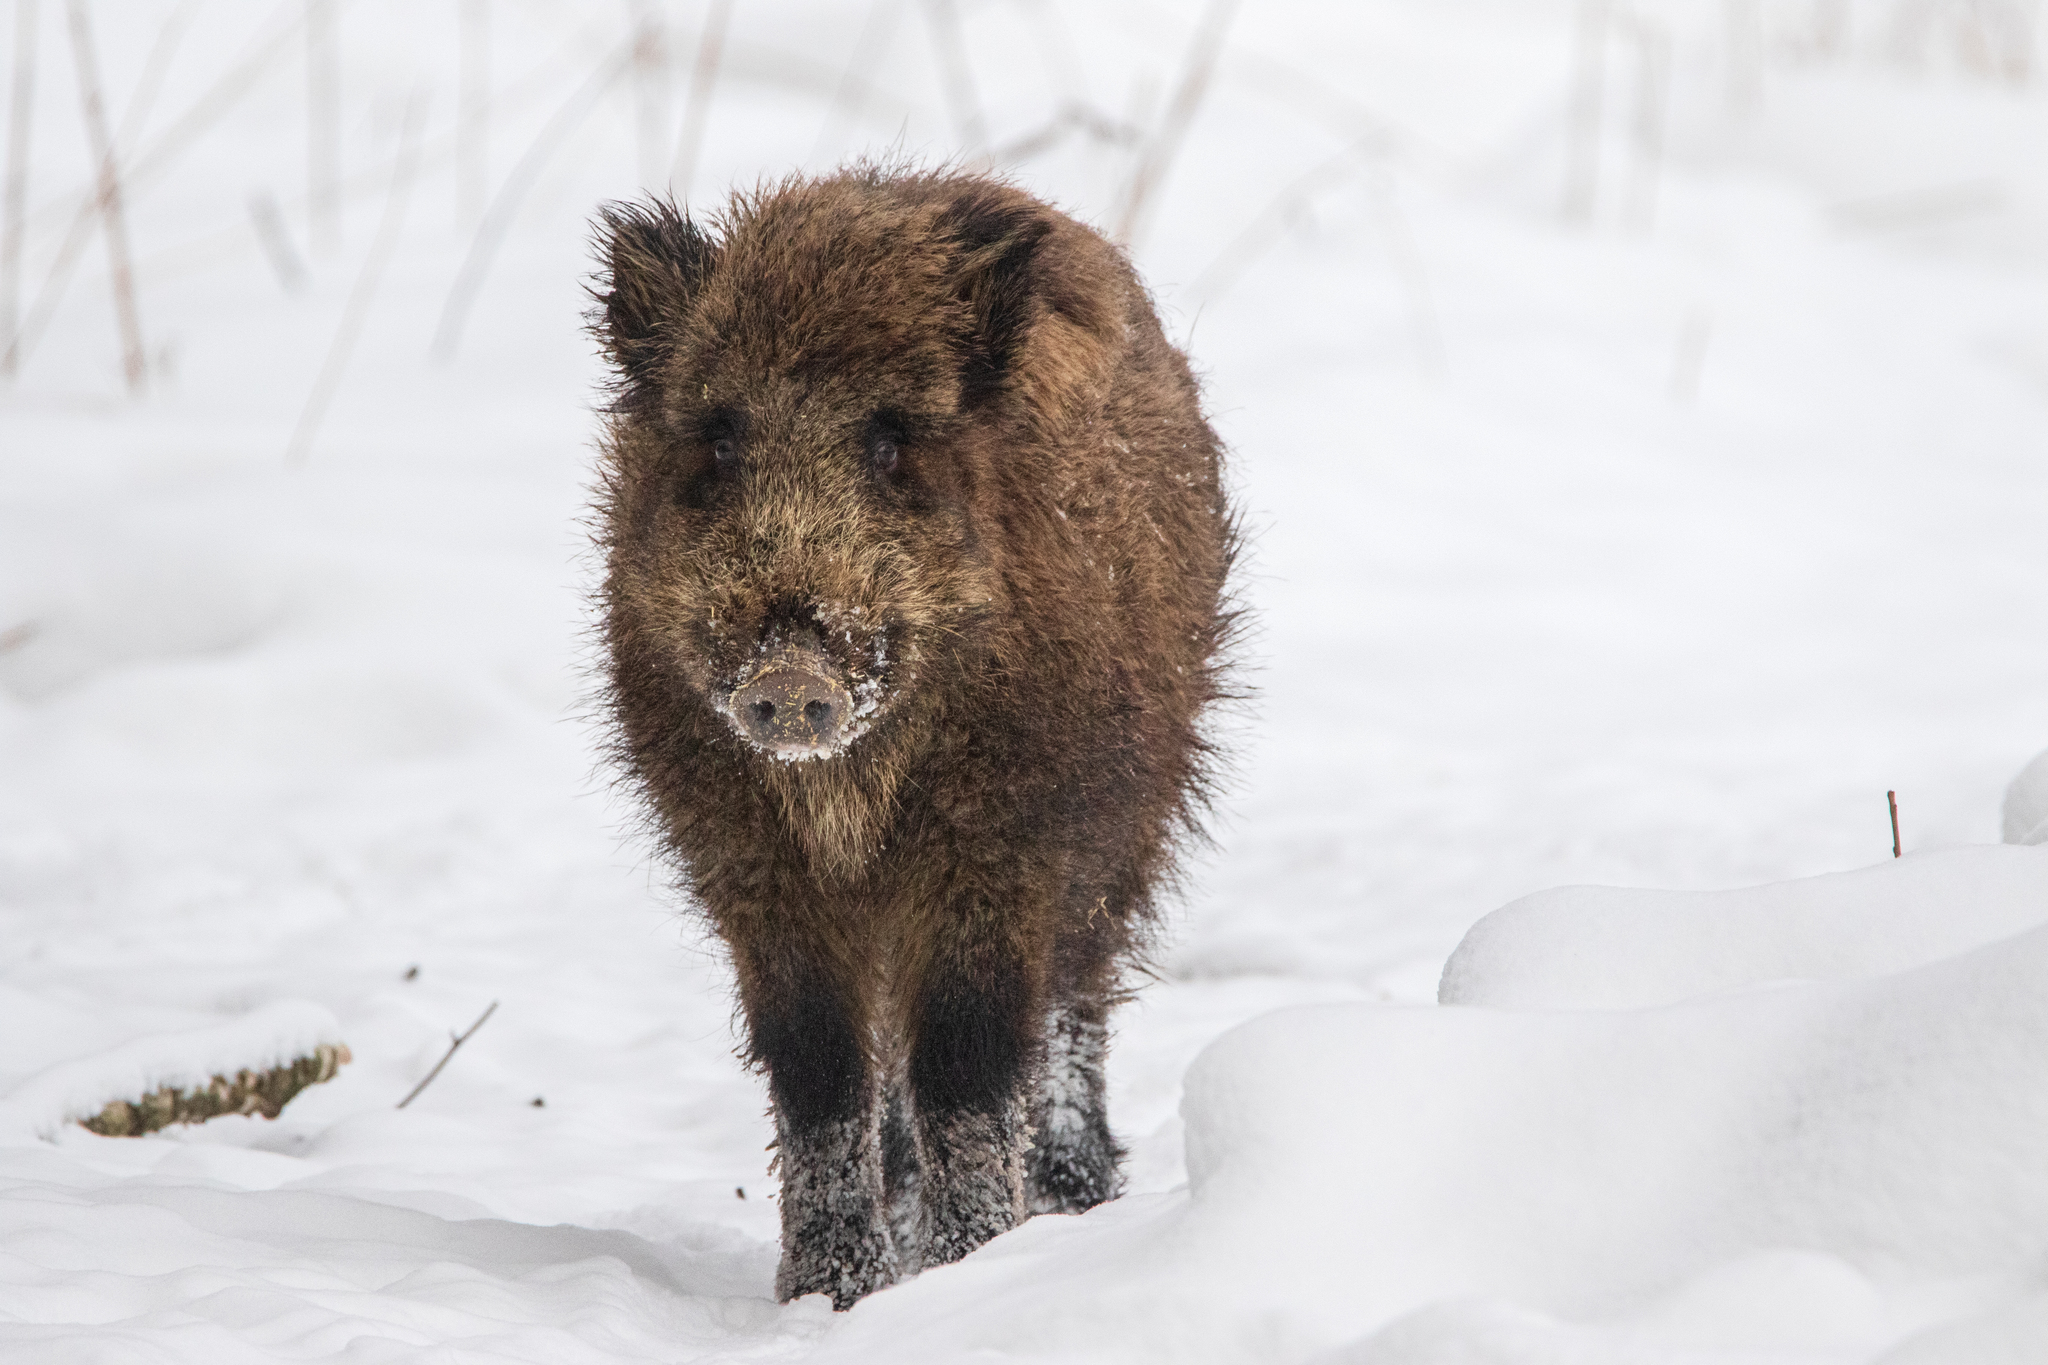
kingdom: Animalia
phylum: Chordata
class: Mammalia
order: Artiodactyla
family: Suidae
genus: Sus
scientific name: Sus scrofa
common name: Wild boar
